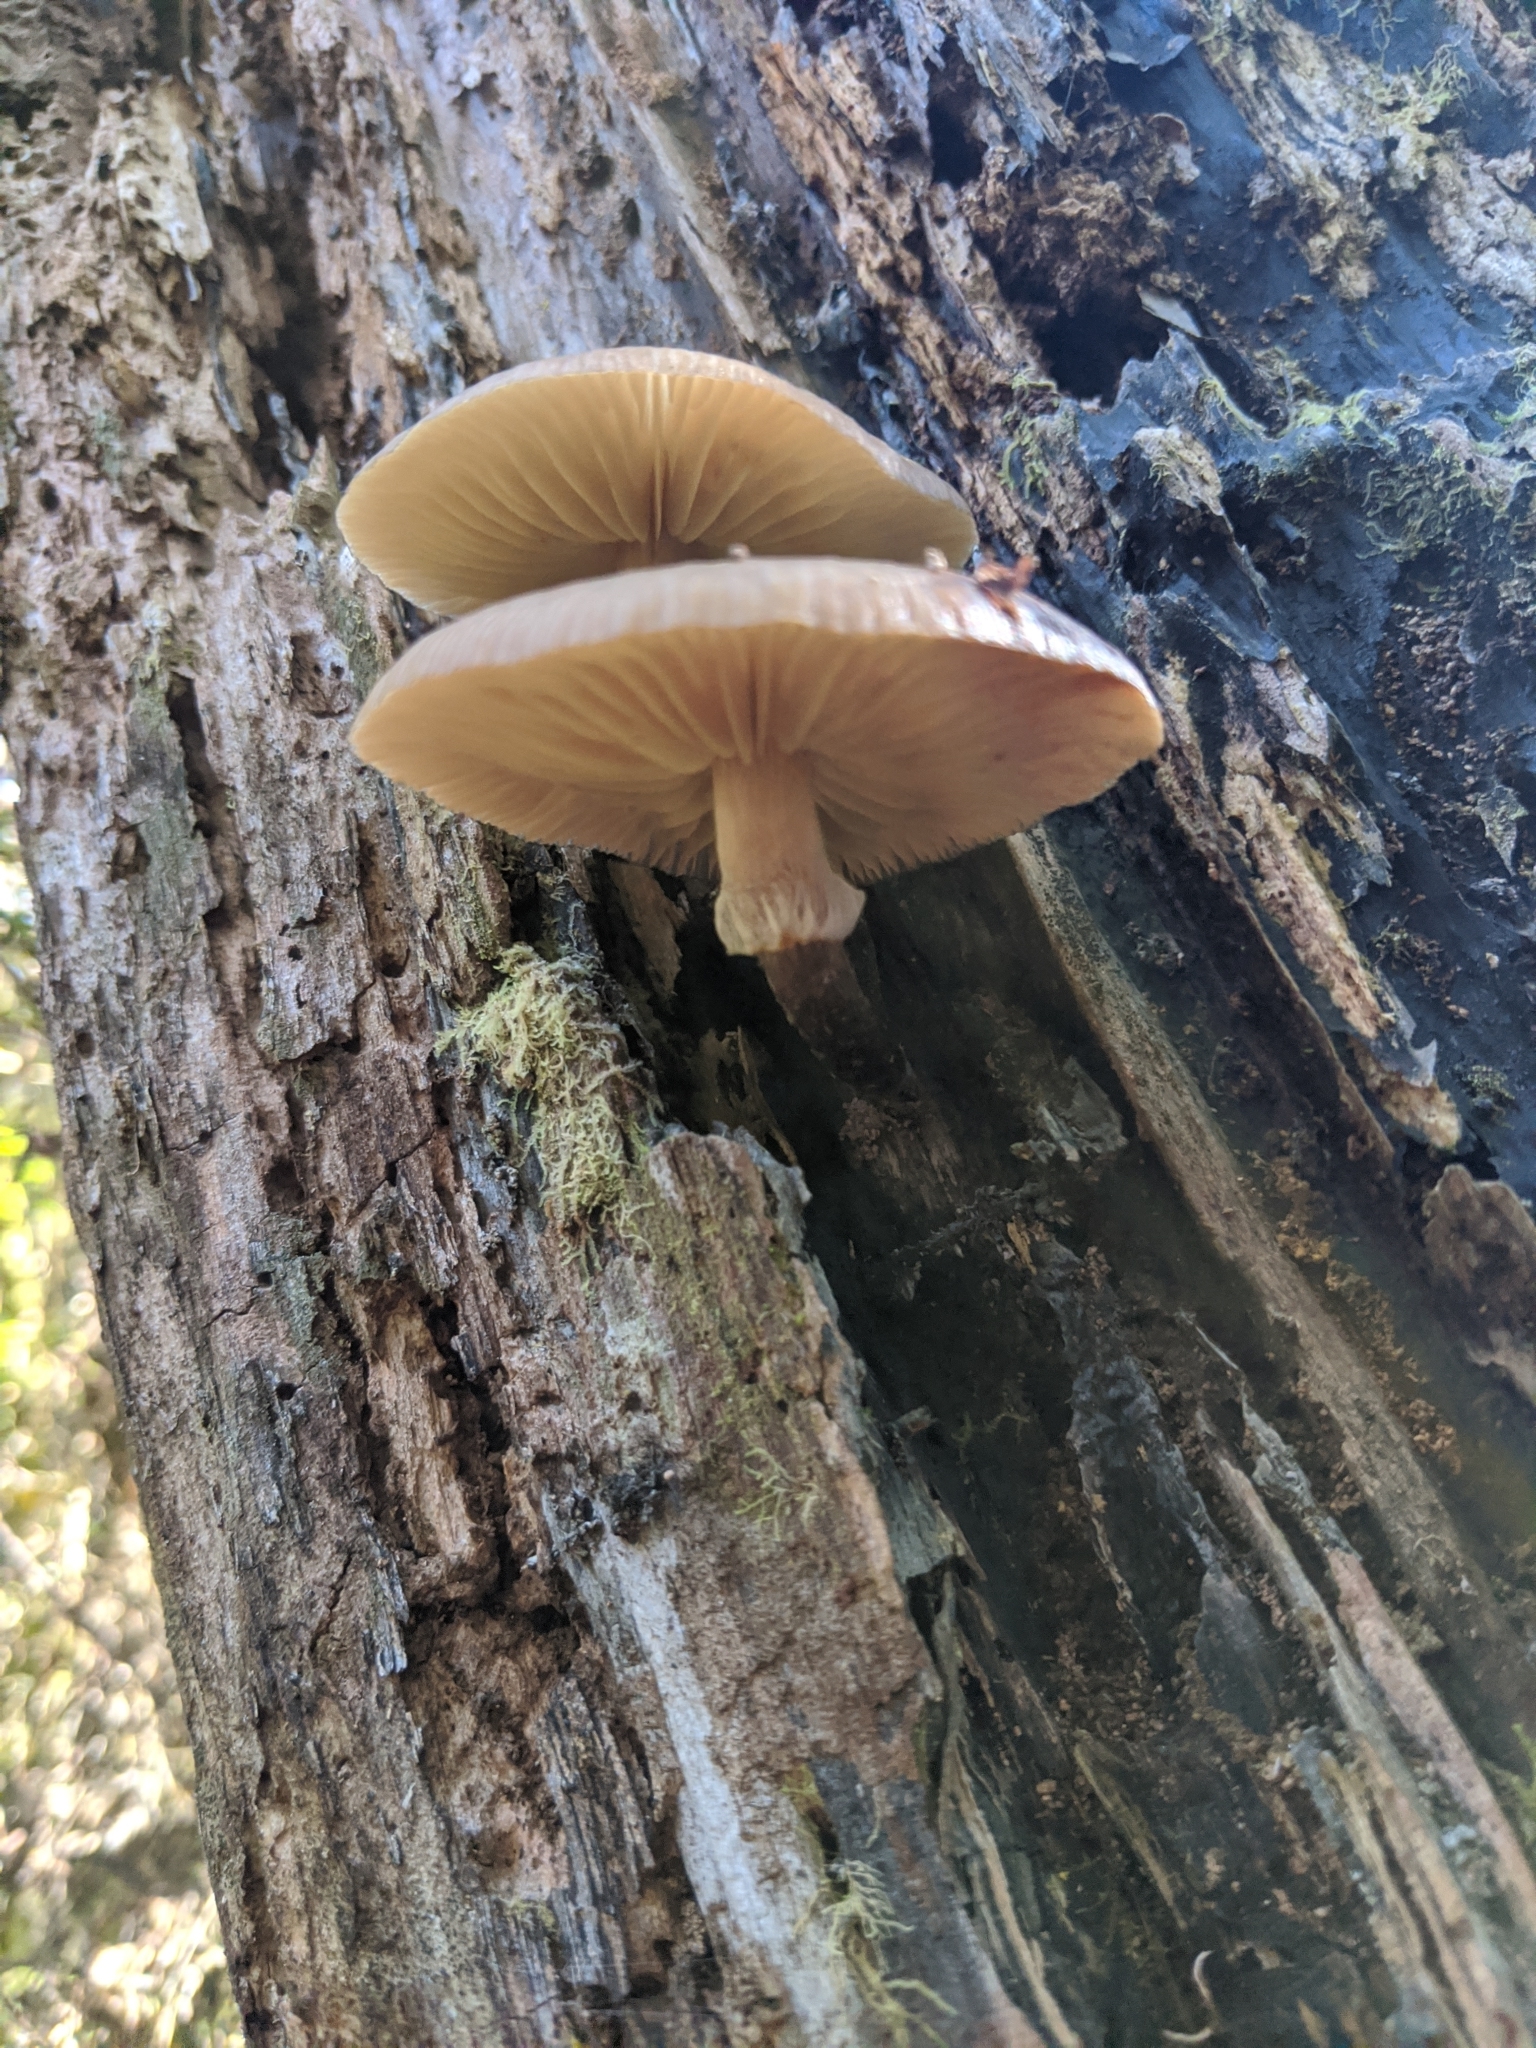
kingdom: Fungi
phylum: Basidiomycota
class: Agaricomycetes
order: Agaricales
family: Physalacriaceae
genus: Armillaria
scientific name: Armillaria novae-zelandiae
